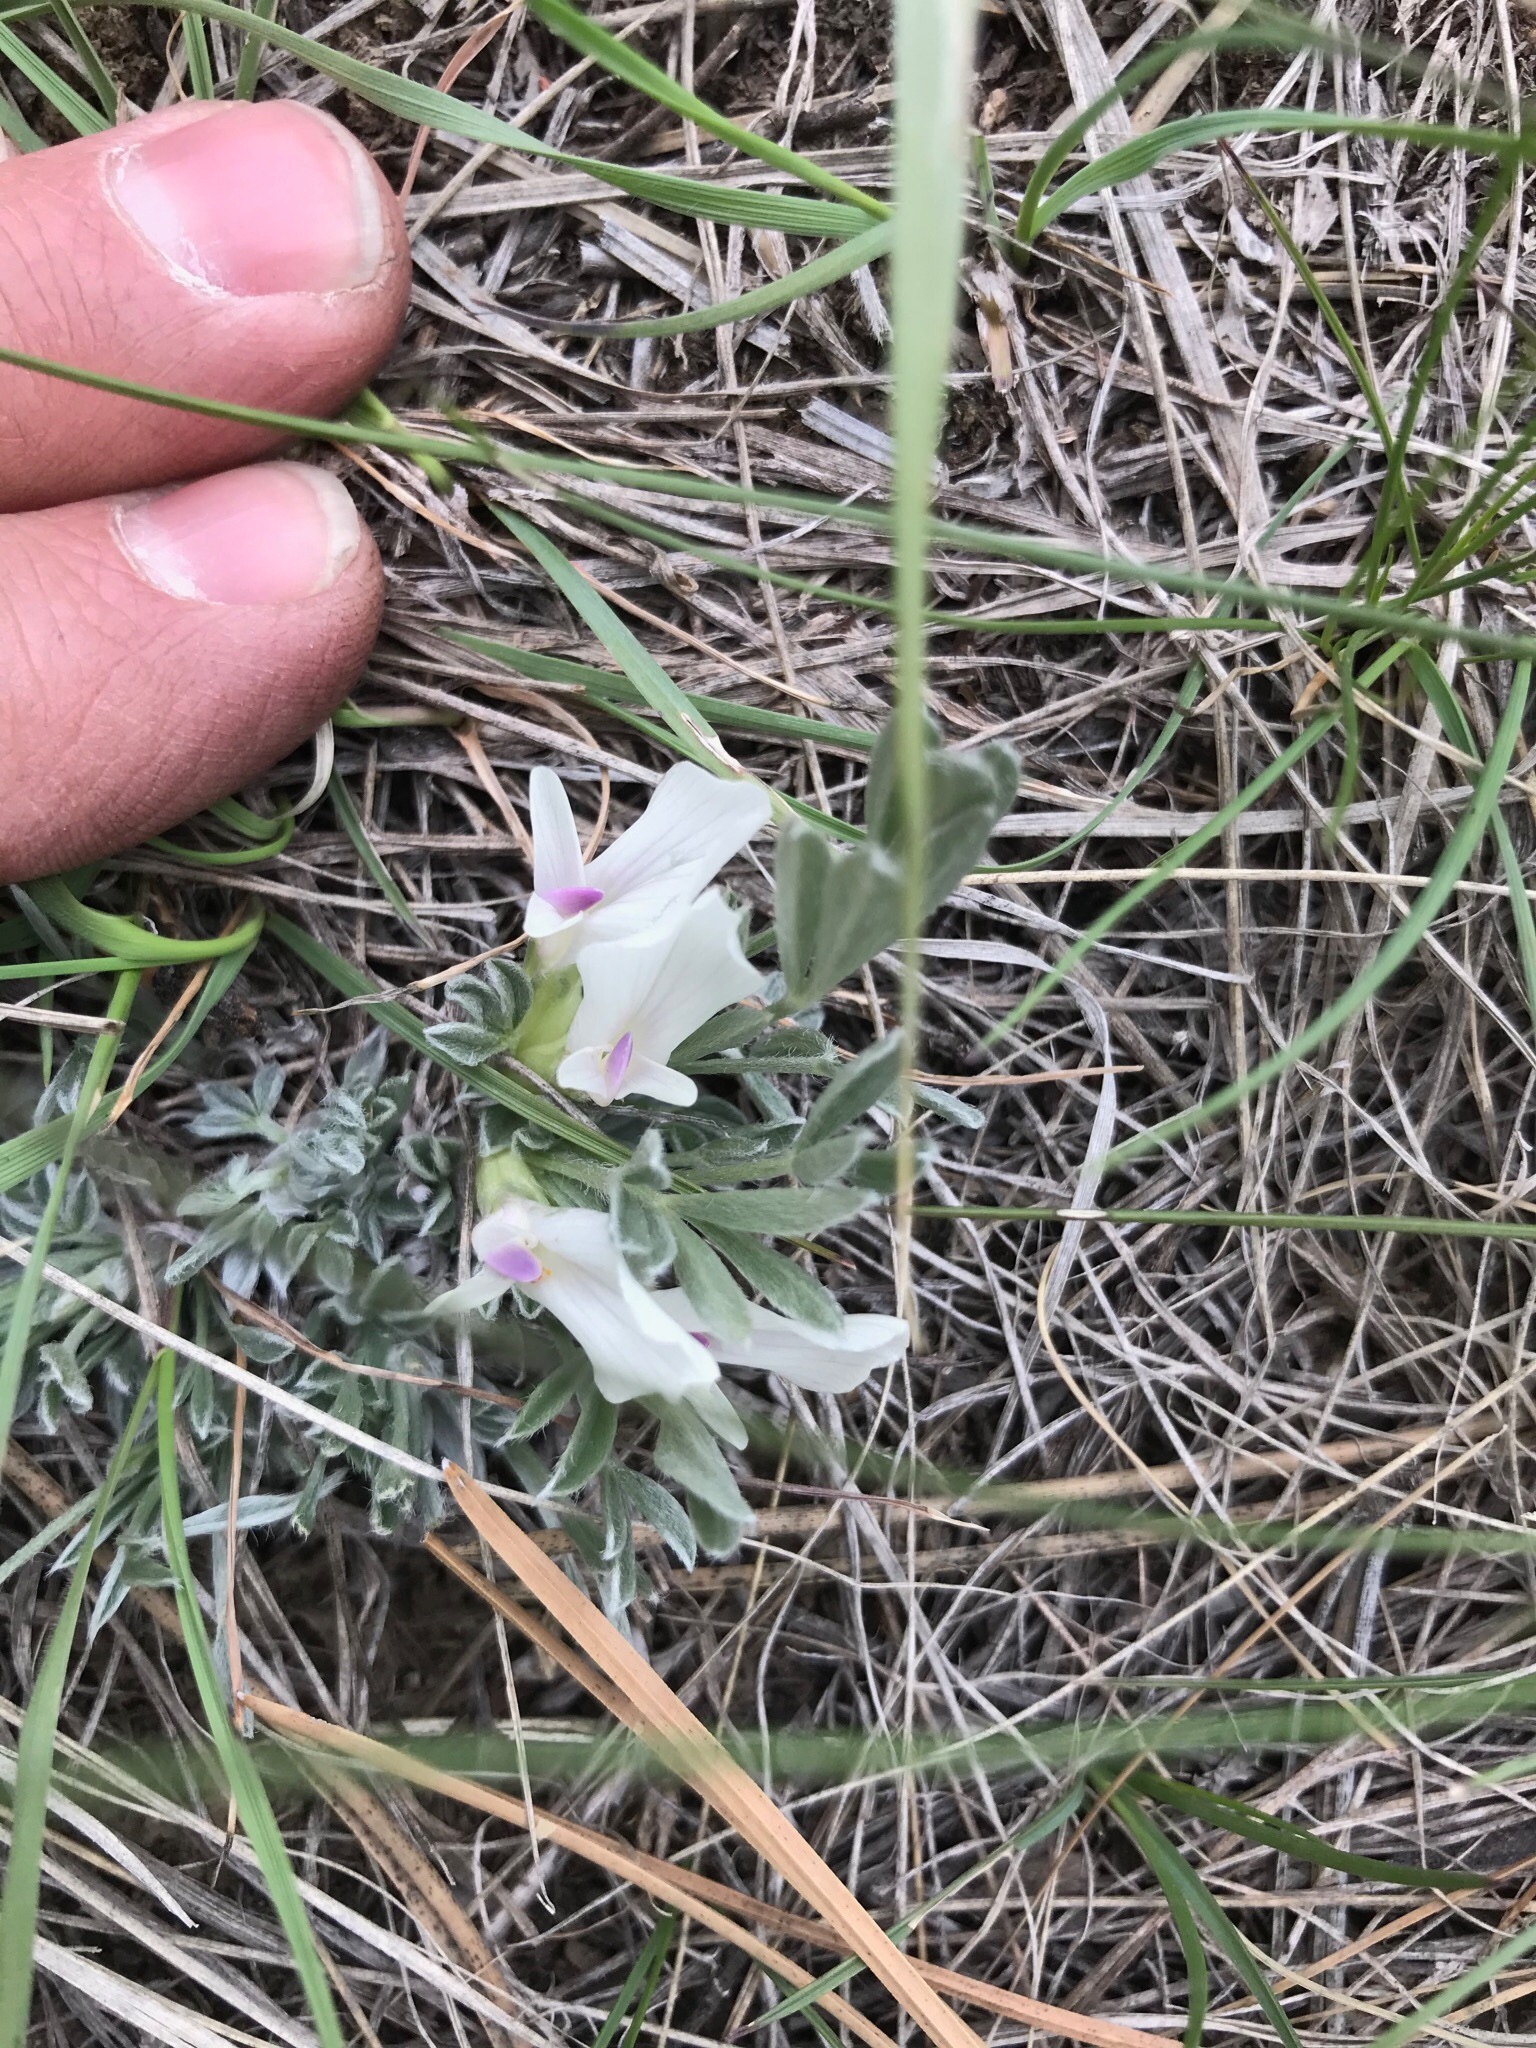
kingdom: Plantae
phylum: Tracheophyta
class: Magnoliopsida
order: Fabales
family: Fabaceae
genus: Astragalus
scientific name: Astragalus gilviflorus
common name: Cushion milk-vetch
